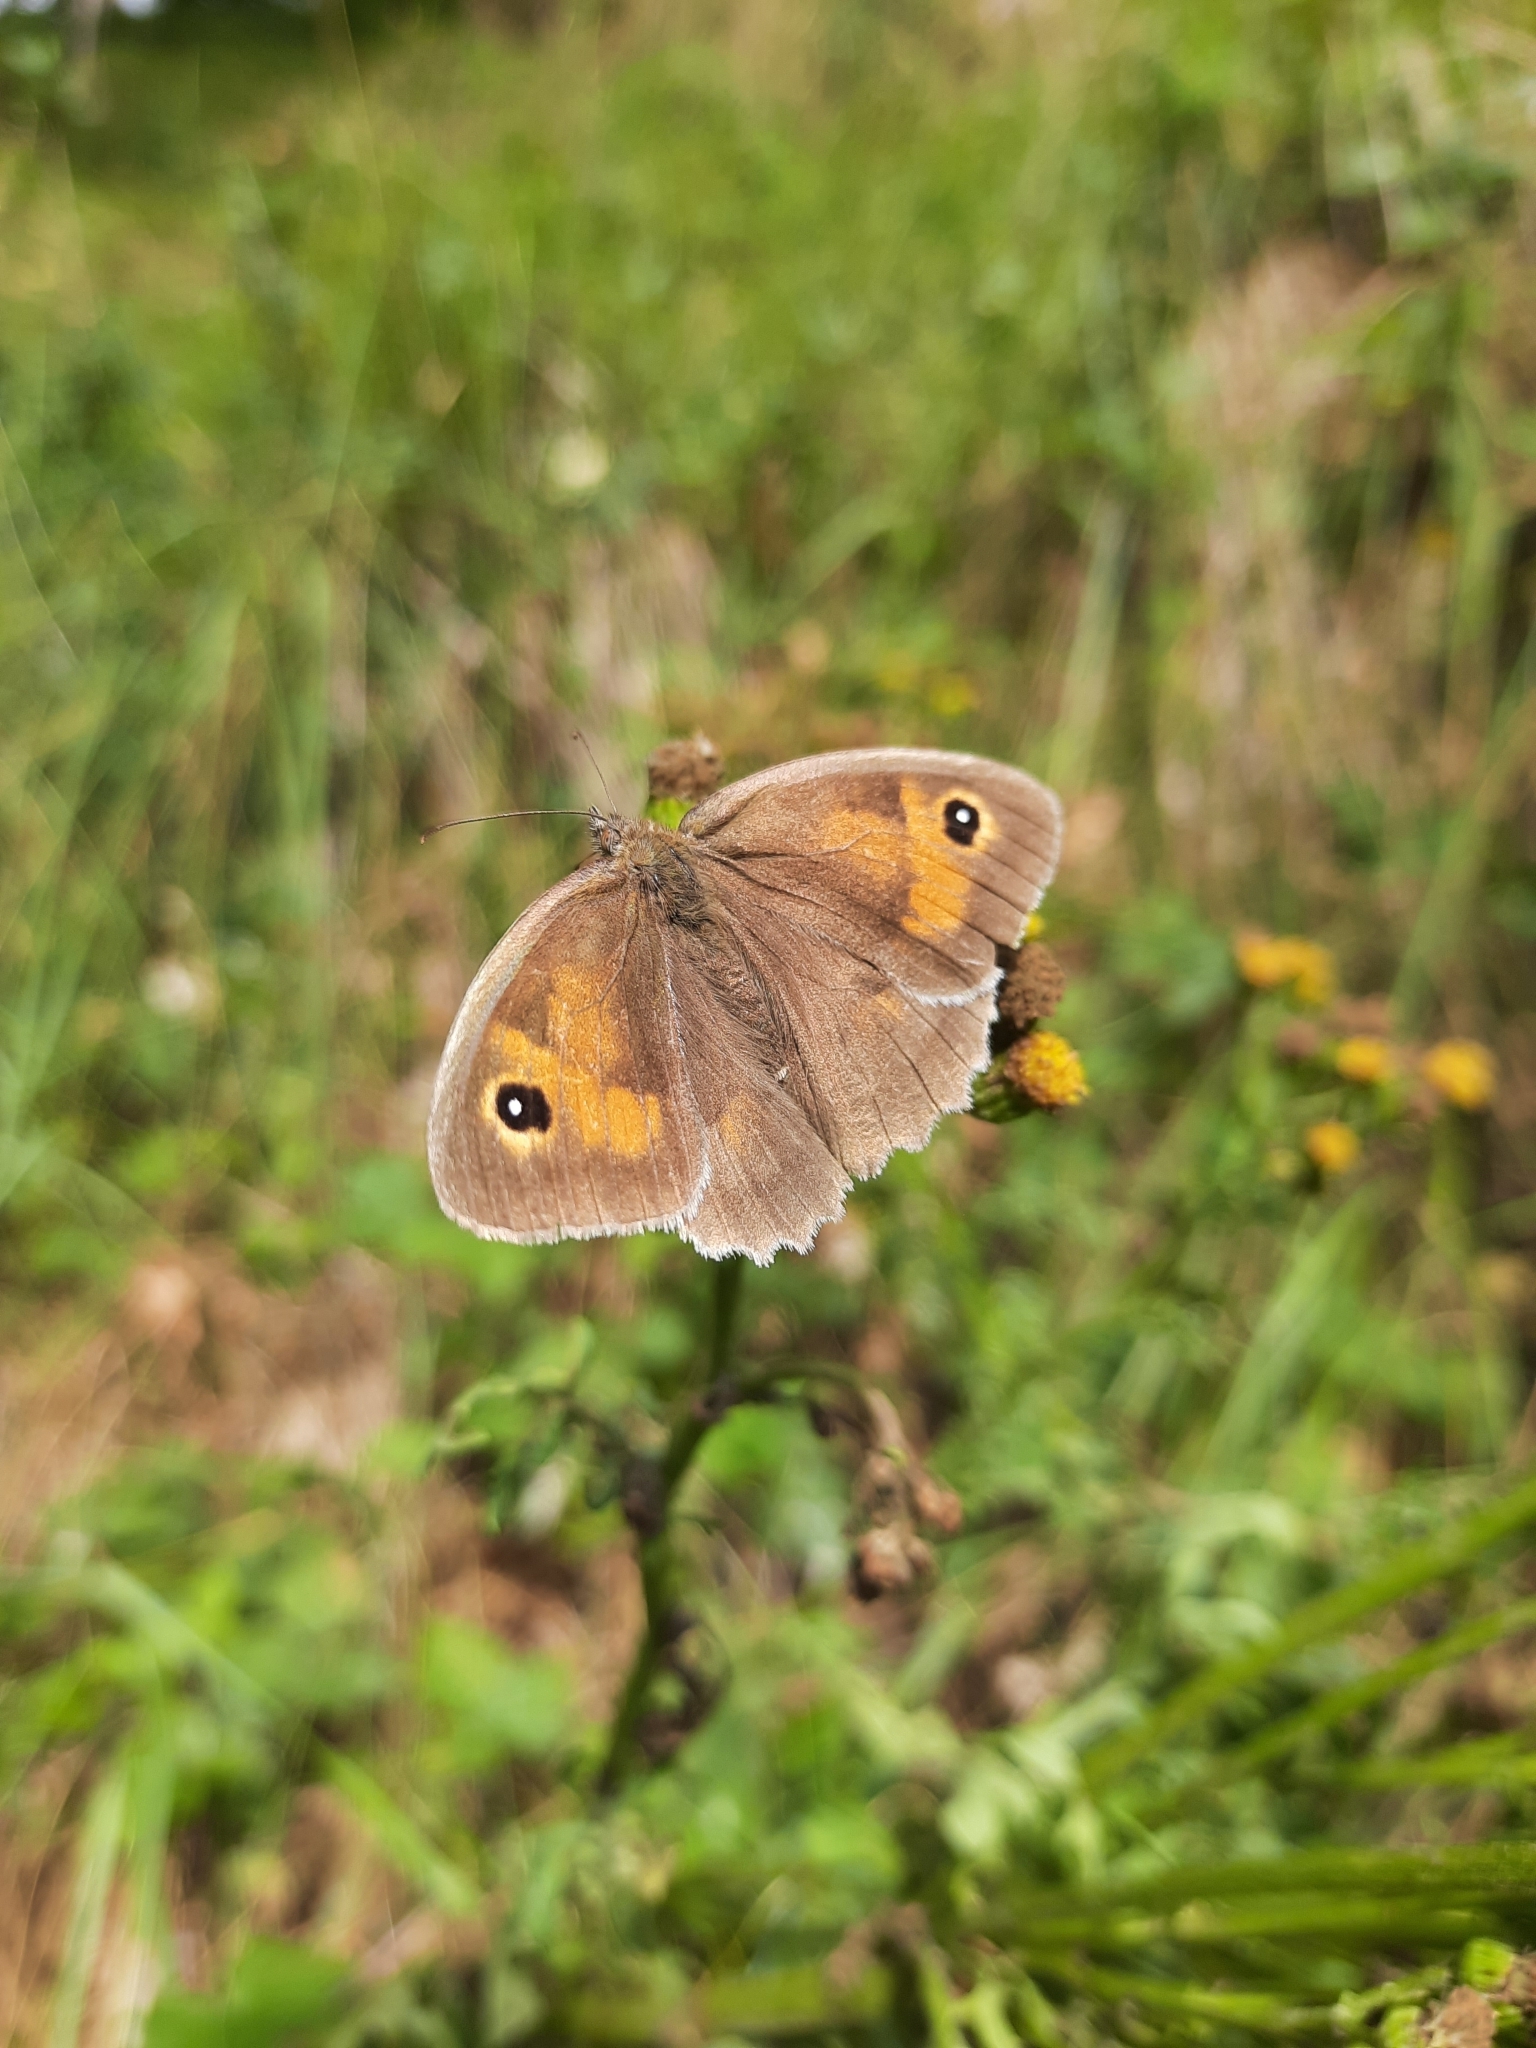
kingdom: Animalia
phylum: Arthropoda
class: Insecta
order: Lepidoptera
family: Nymphalidae
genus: Maniola
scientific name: Maniola jurtina
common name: Meadow brown
